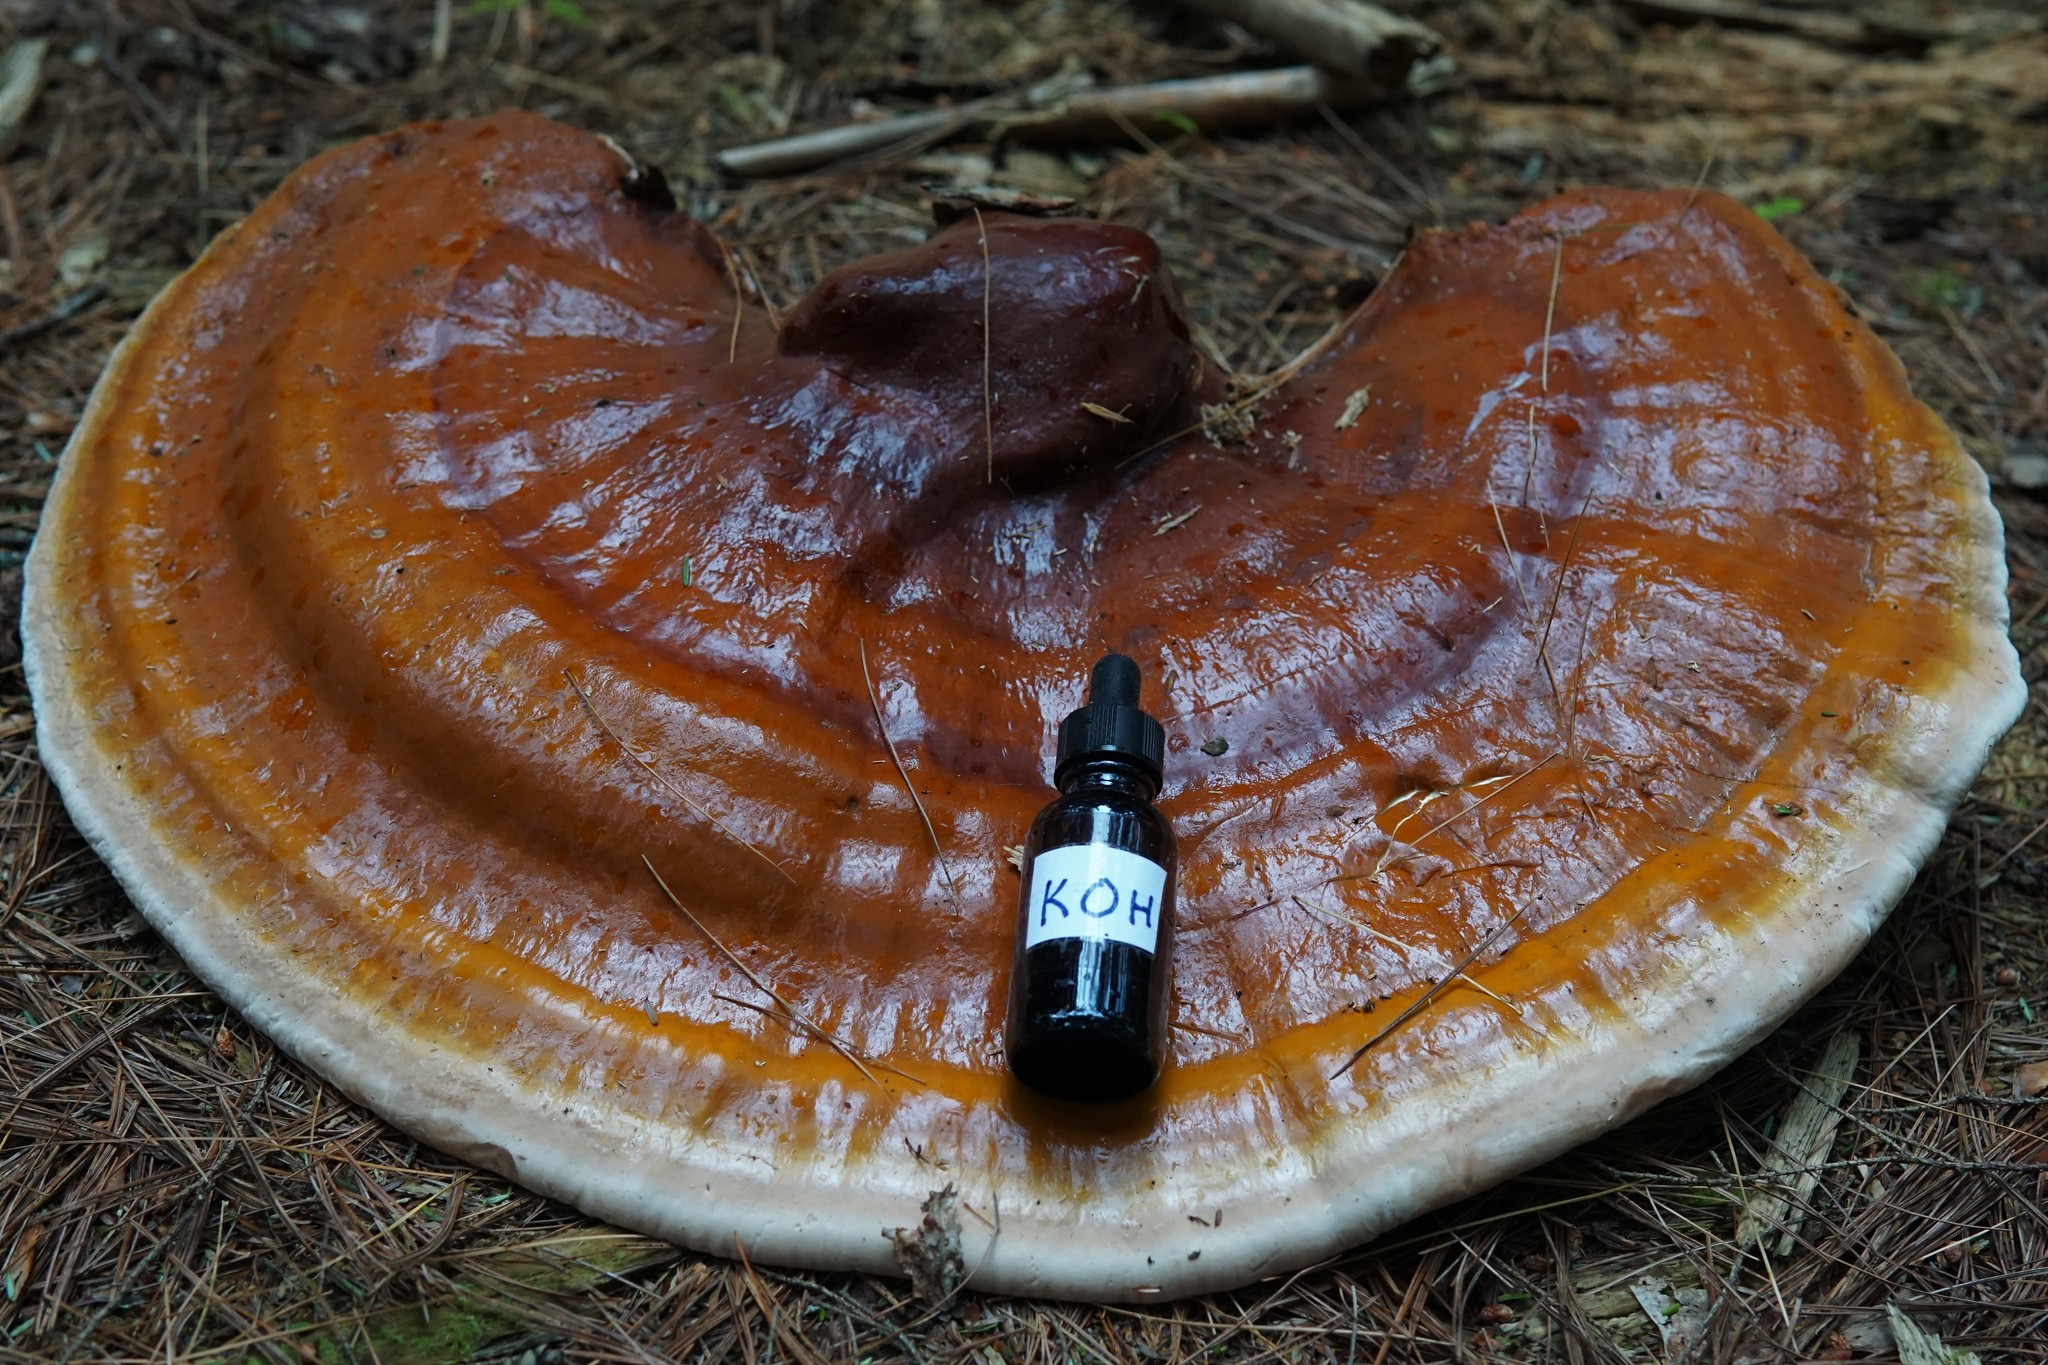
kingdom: Fungi
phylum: Basidiomycota
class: Agaricomycetes
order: Polyporales
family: Polyporaceae
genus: Ganoderma
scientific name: Ganoderma tsugae
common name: Hemlock varnish shelf
